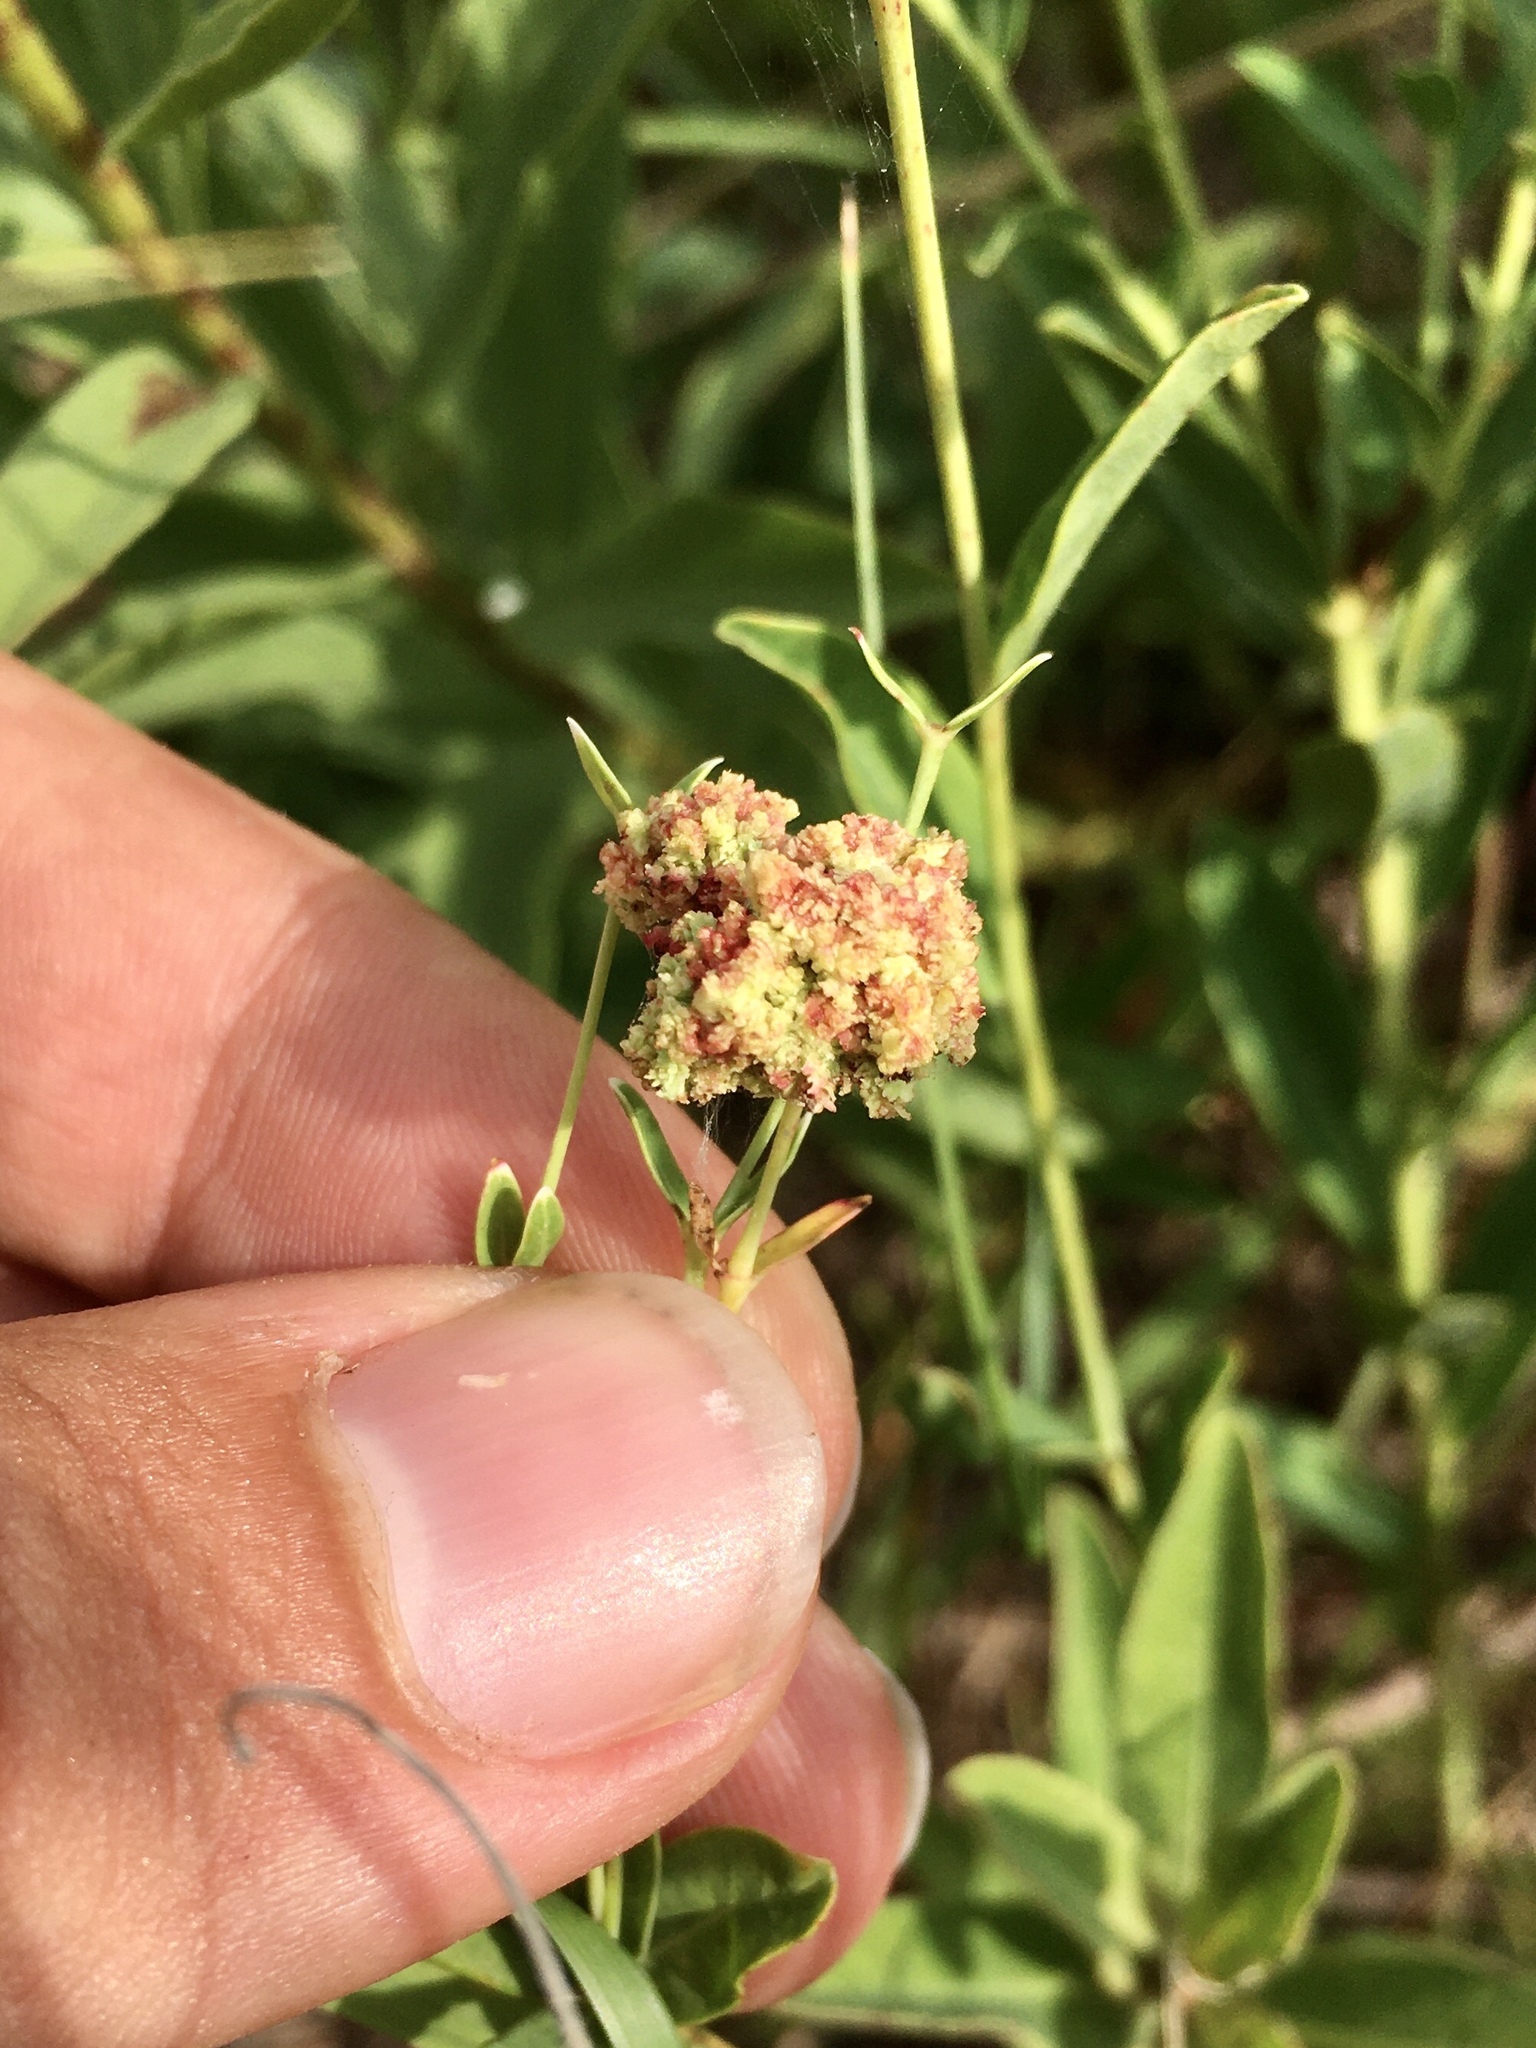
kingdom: Animalia
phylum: Arthropoda
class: Arachnida
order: Trombidiformes
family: Eriophyidae
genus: Aculops
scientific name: Aculops
